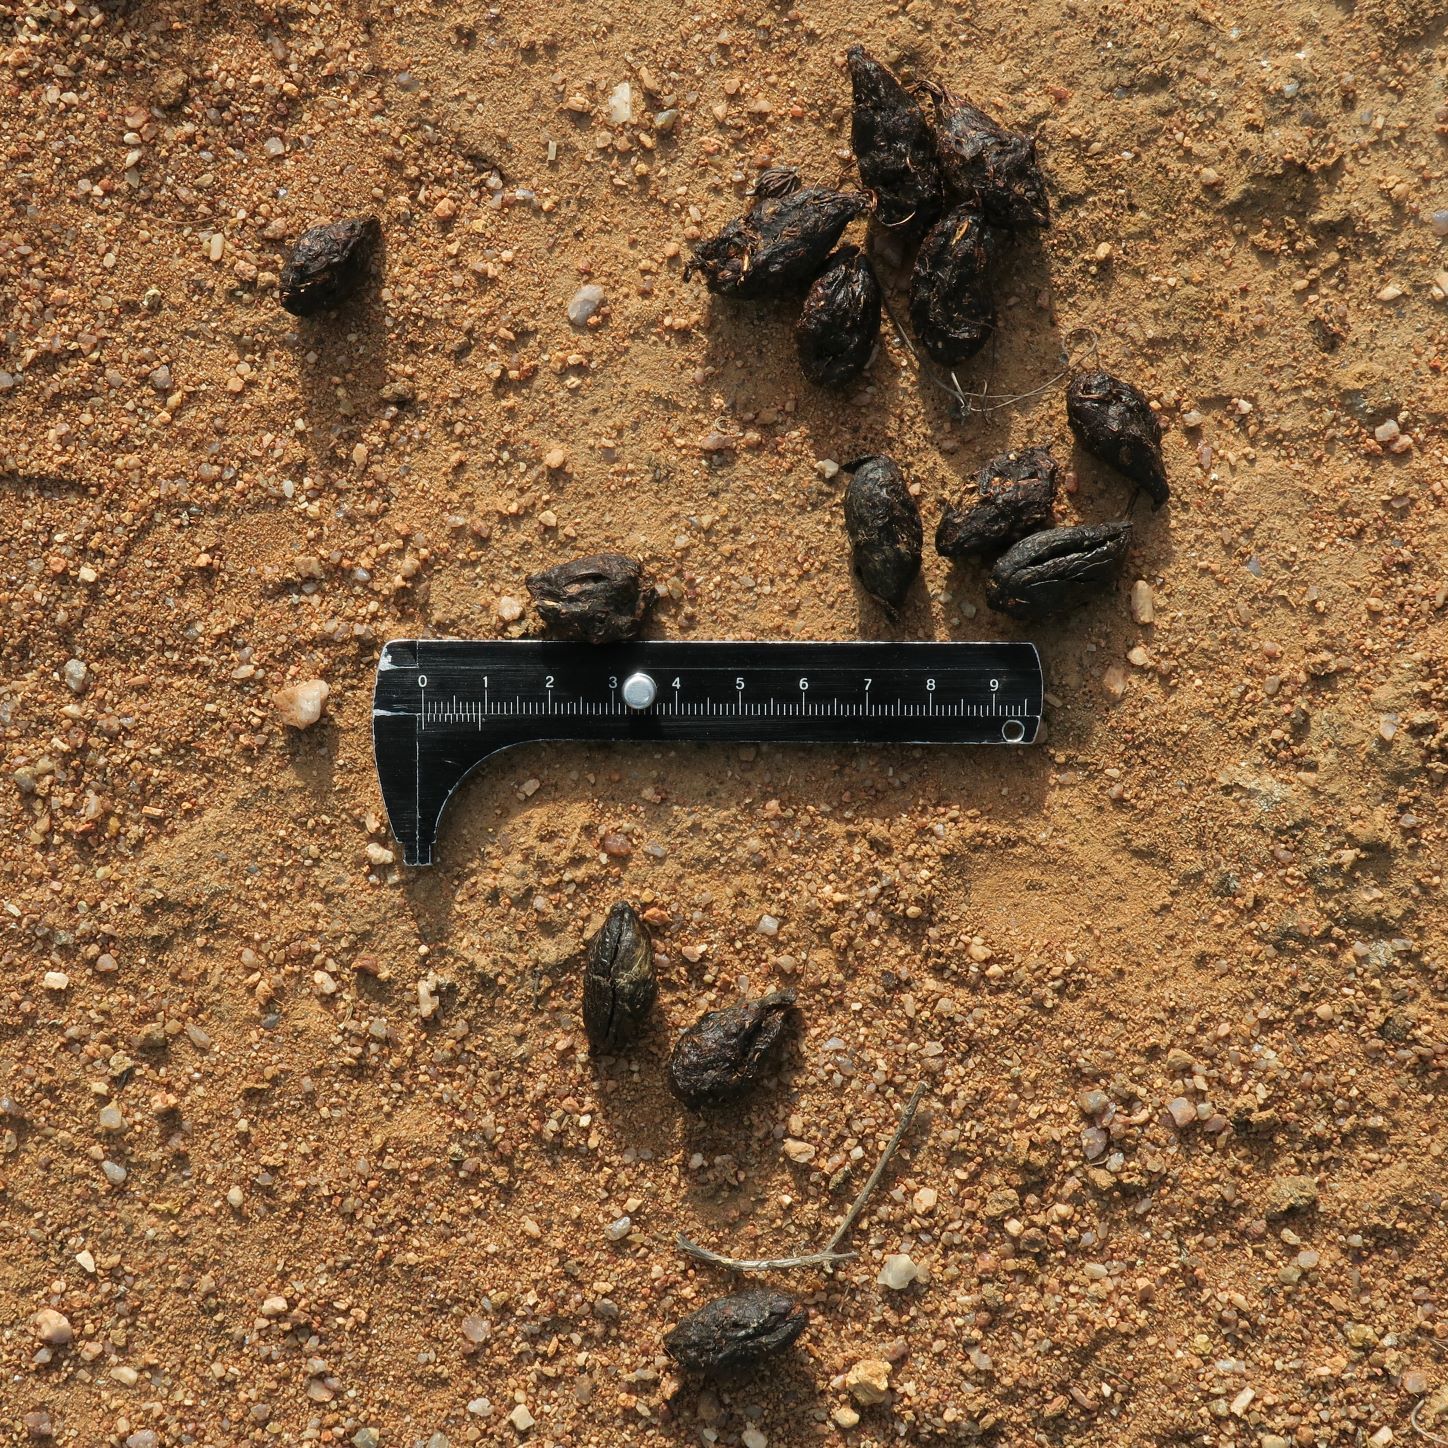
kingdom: Animalia
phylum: Chordata
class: Mammalia
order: Rodentia
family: Hystricidae
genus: Hystrix
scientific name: Hystrix africaeaustralis
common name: Cape porcupine
